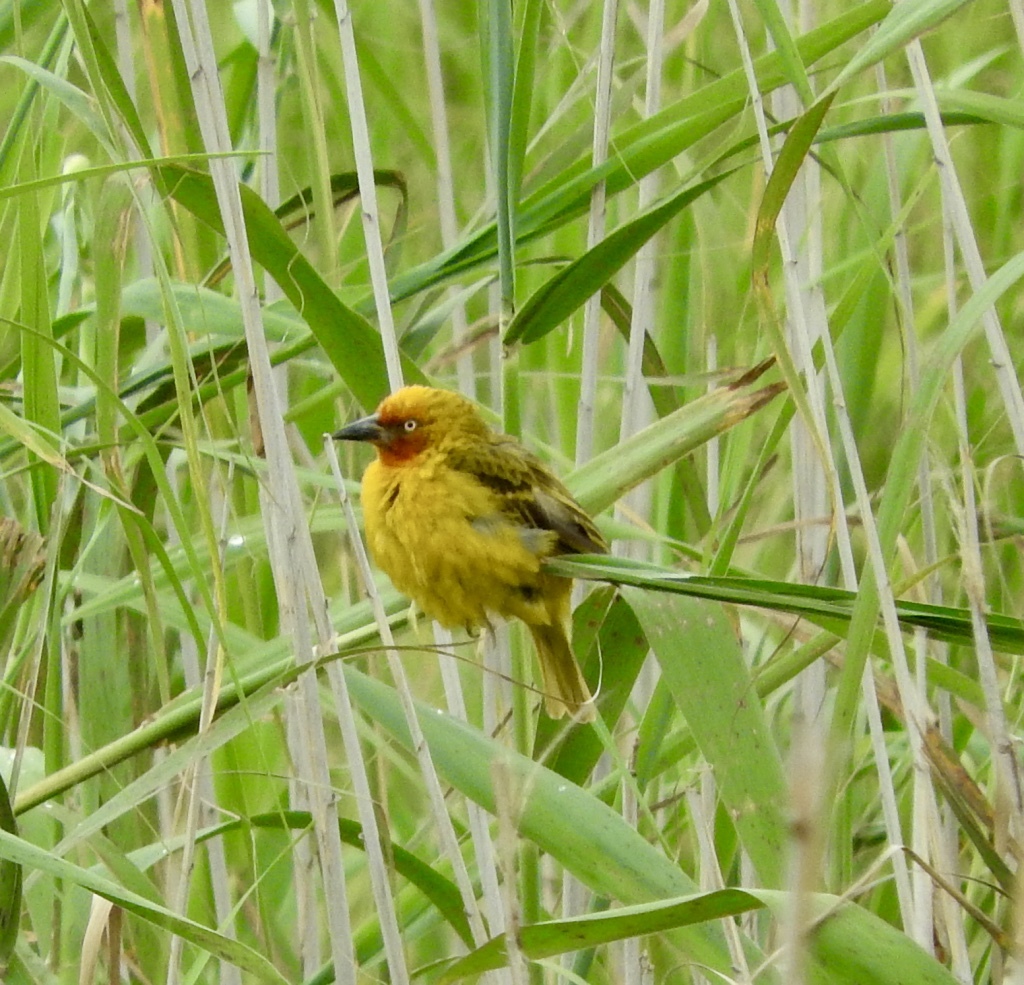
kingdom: Animalia
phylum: Chordata
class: Aves
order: Passeriformes
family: Ploceidae
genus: Ploceus
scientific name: Ploceus capensis
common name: Cape weaver
